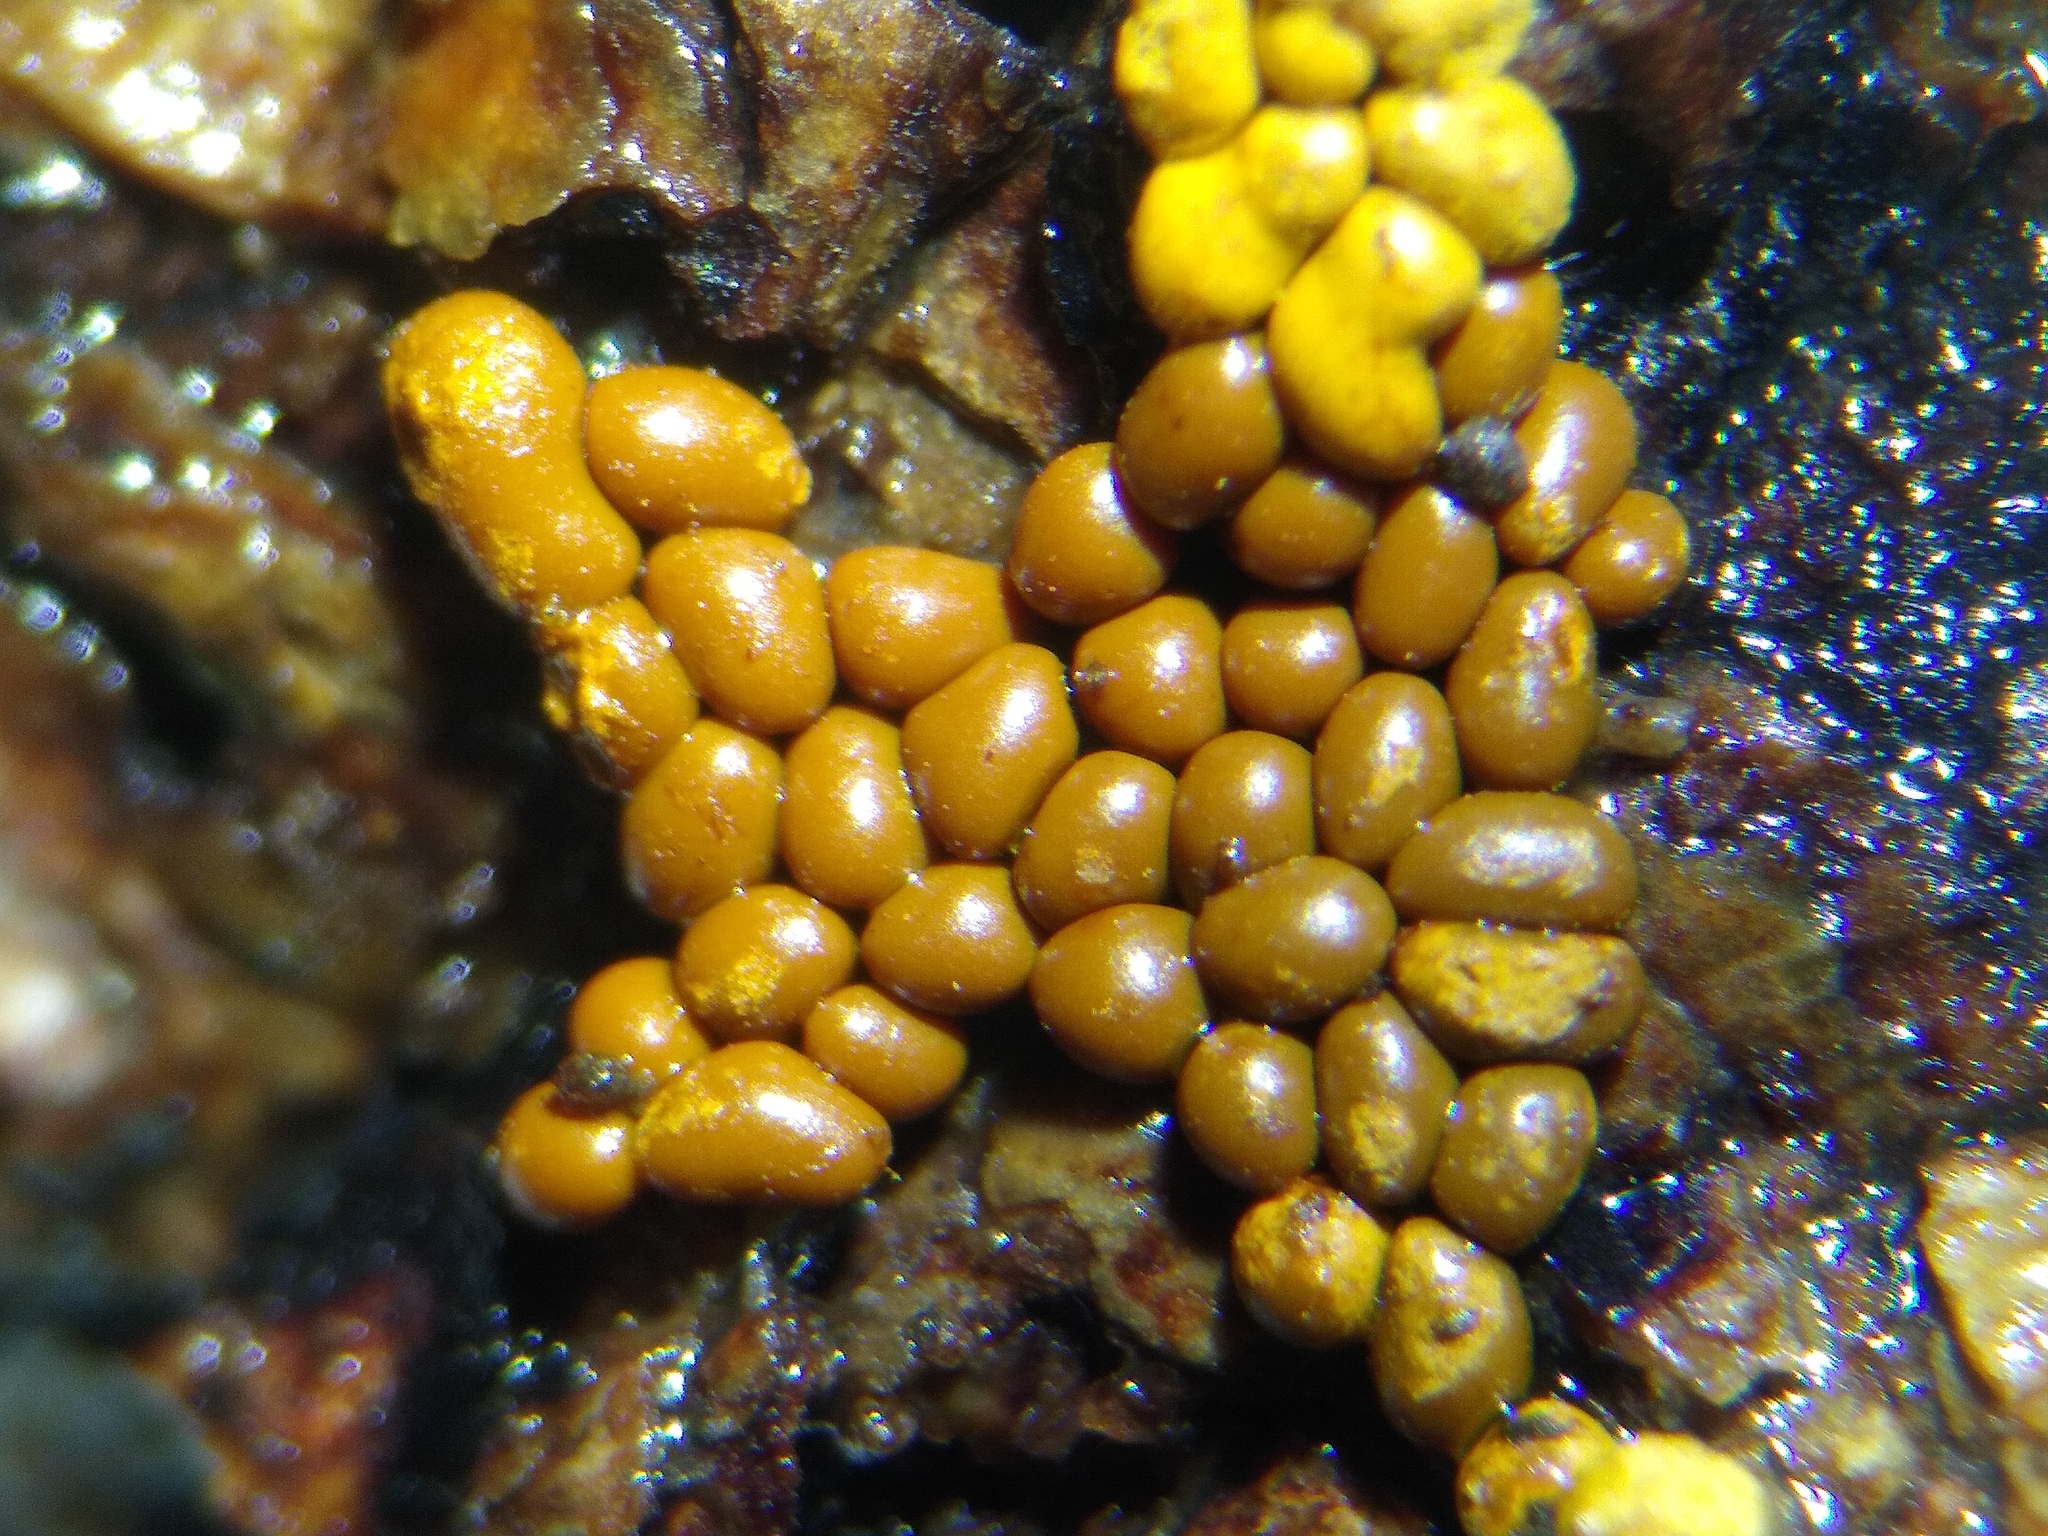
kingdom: Protozoa
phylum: Mycetozoa
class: Myxomycetes
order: Trichiales
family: Trichiaceae
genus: Oligonema
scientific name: Oligonema persimile
